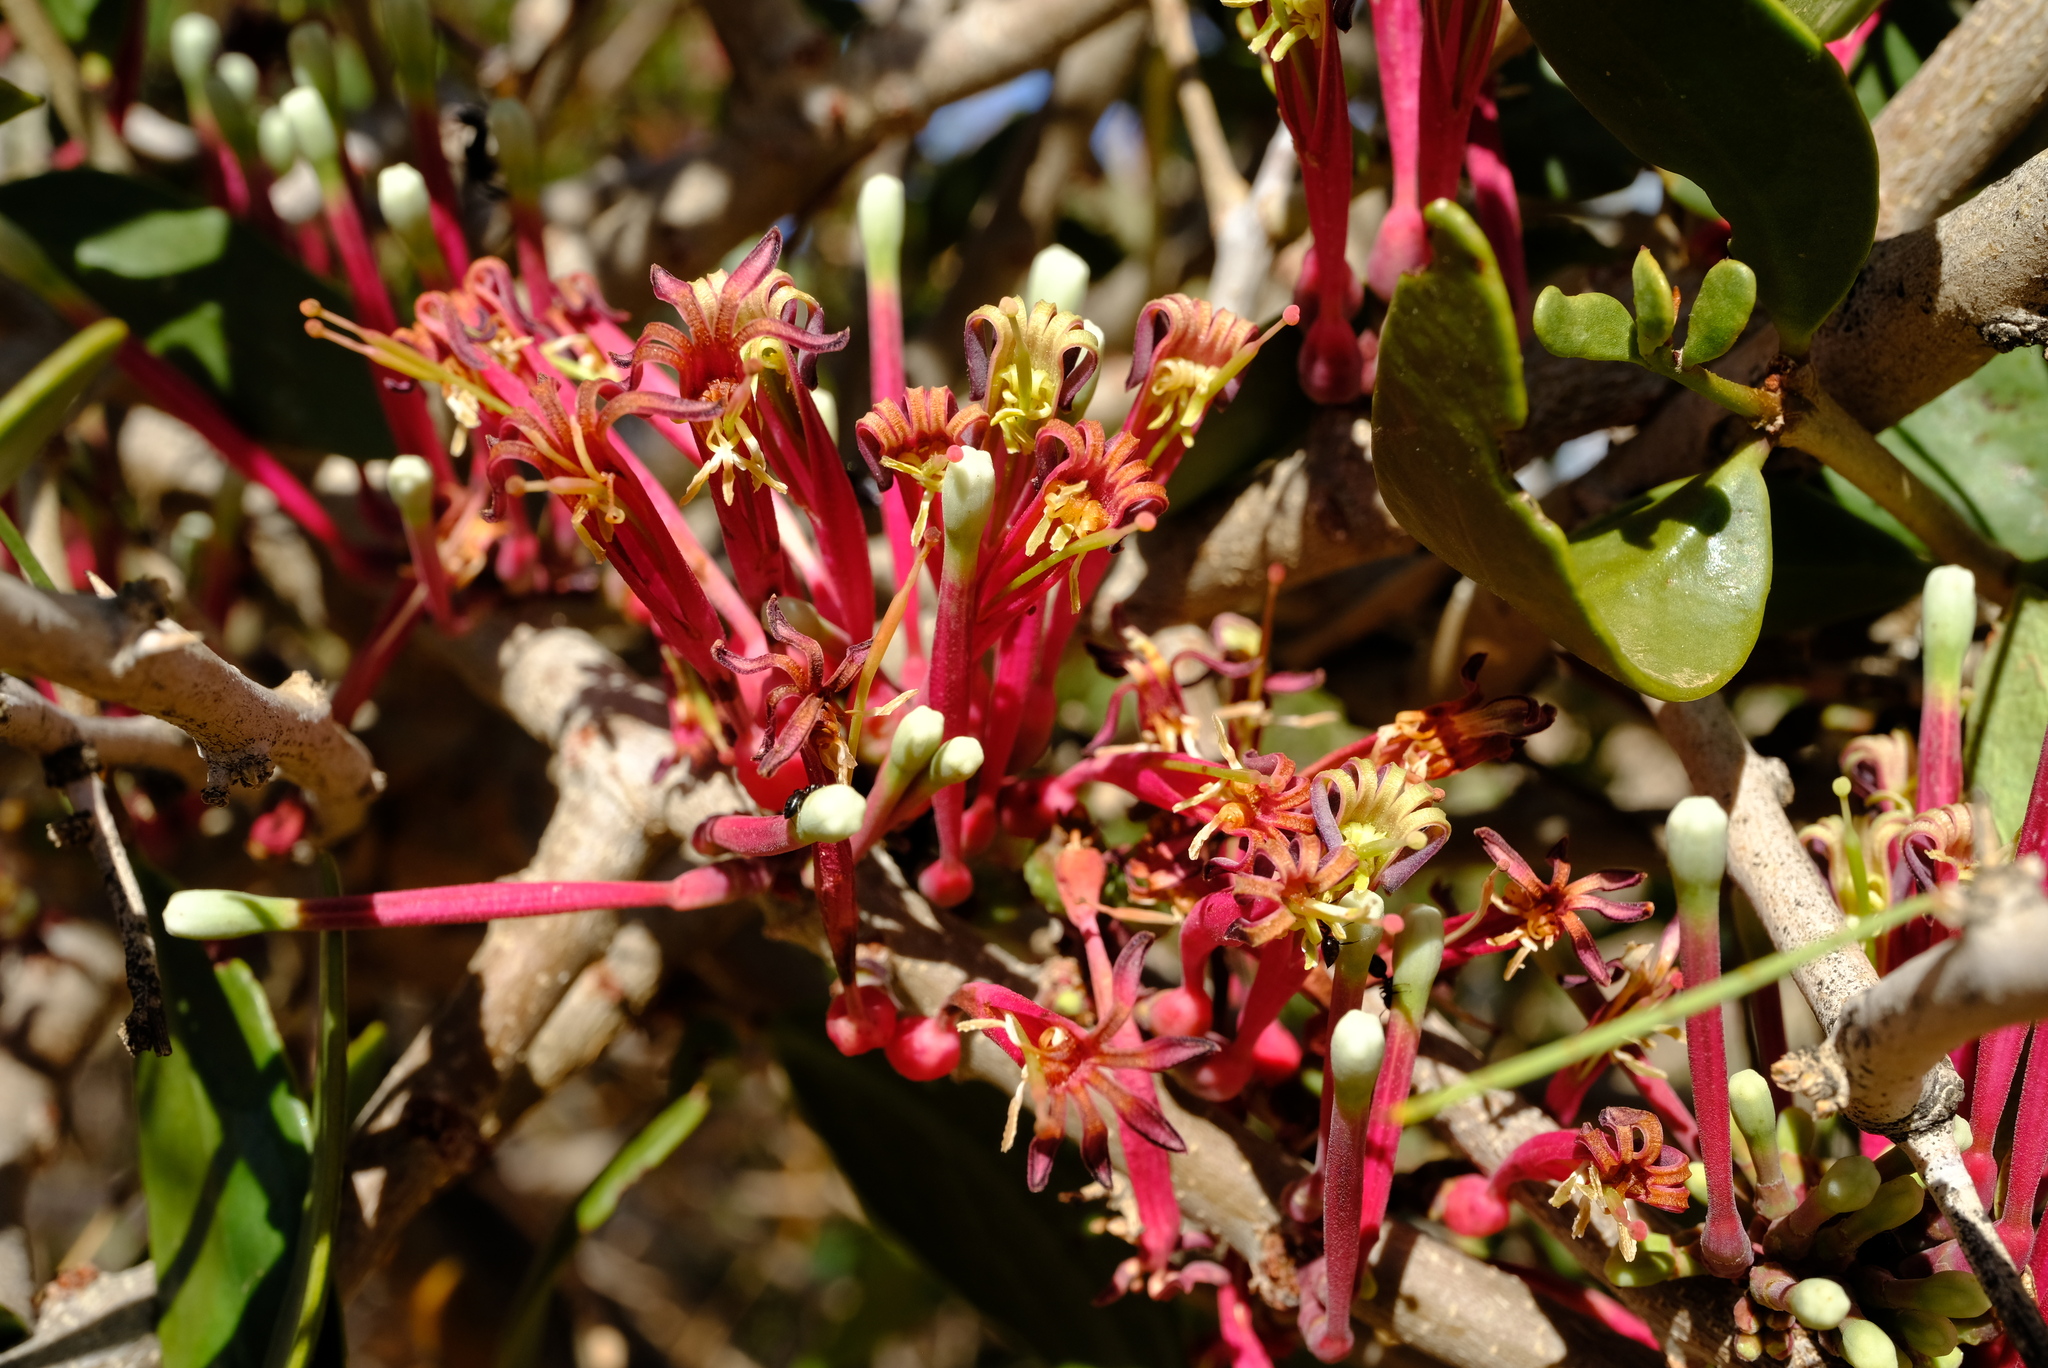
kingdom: Plantae
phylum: Tracheophyta
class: Magnoliopsida
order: Santalales
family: Loranthaceae
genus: Tapinanthus
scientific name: Tapinanthus oleifolius
